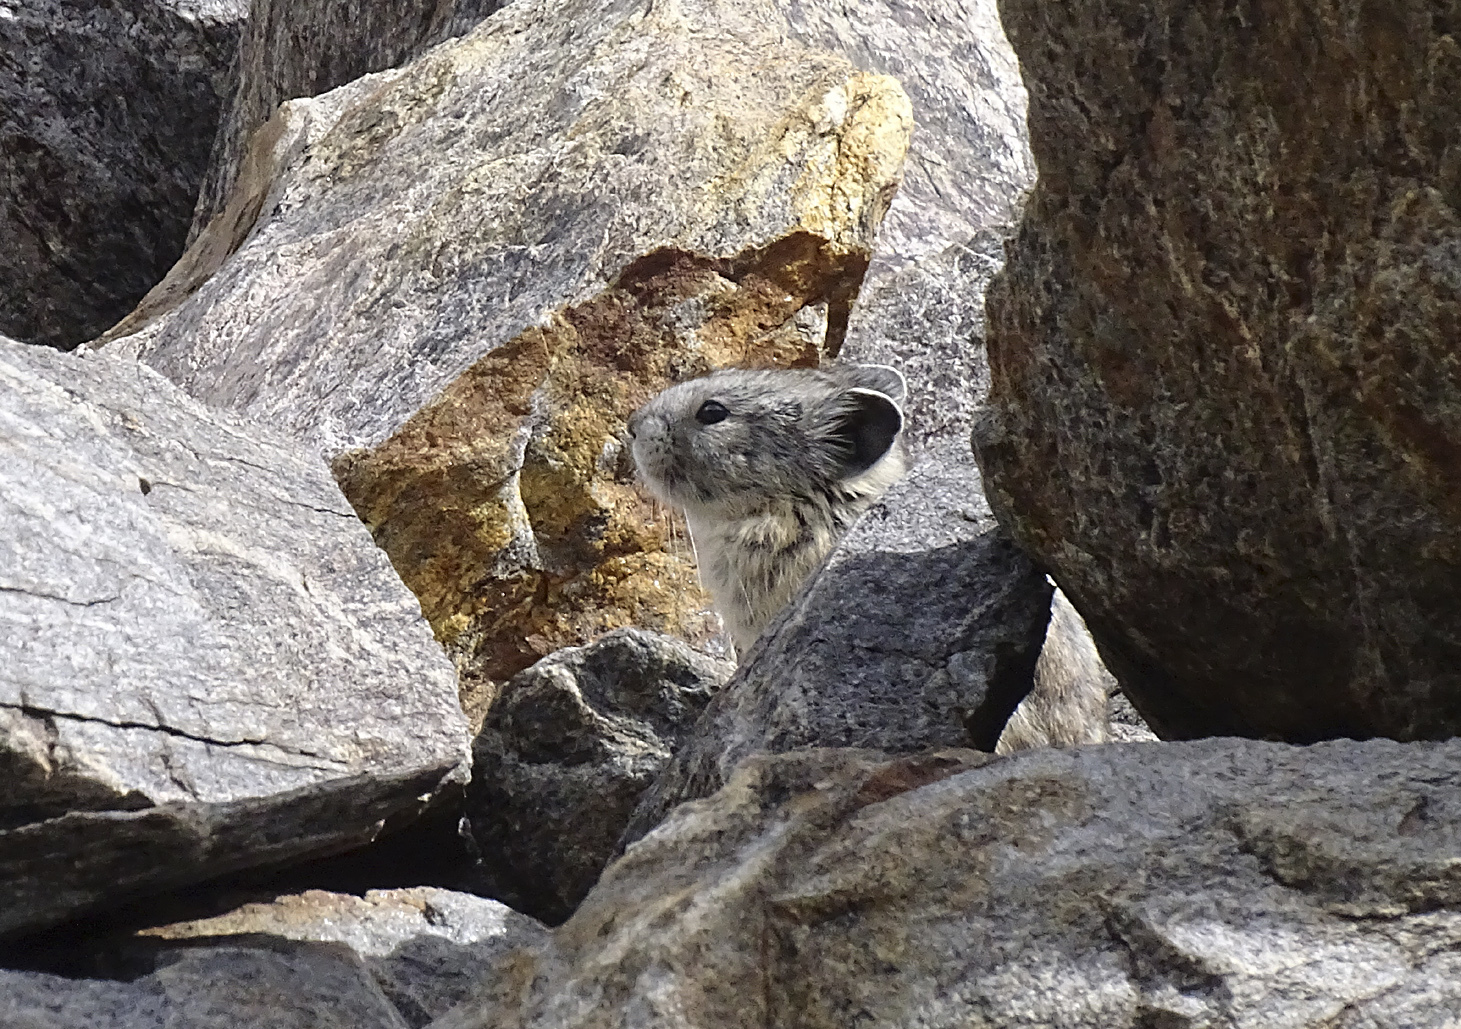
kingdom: Animalia
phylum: Chordata
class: Mammalia
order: Lagomorpha
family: Ochotonidae
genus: Ochotona
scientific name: Ochotona princeps
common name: American pika
